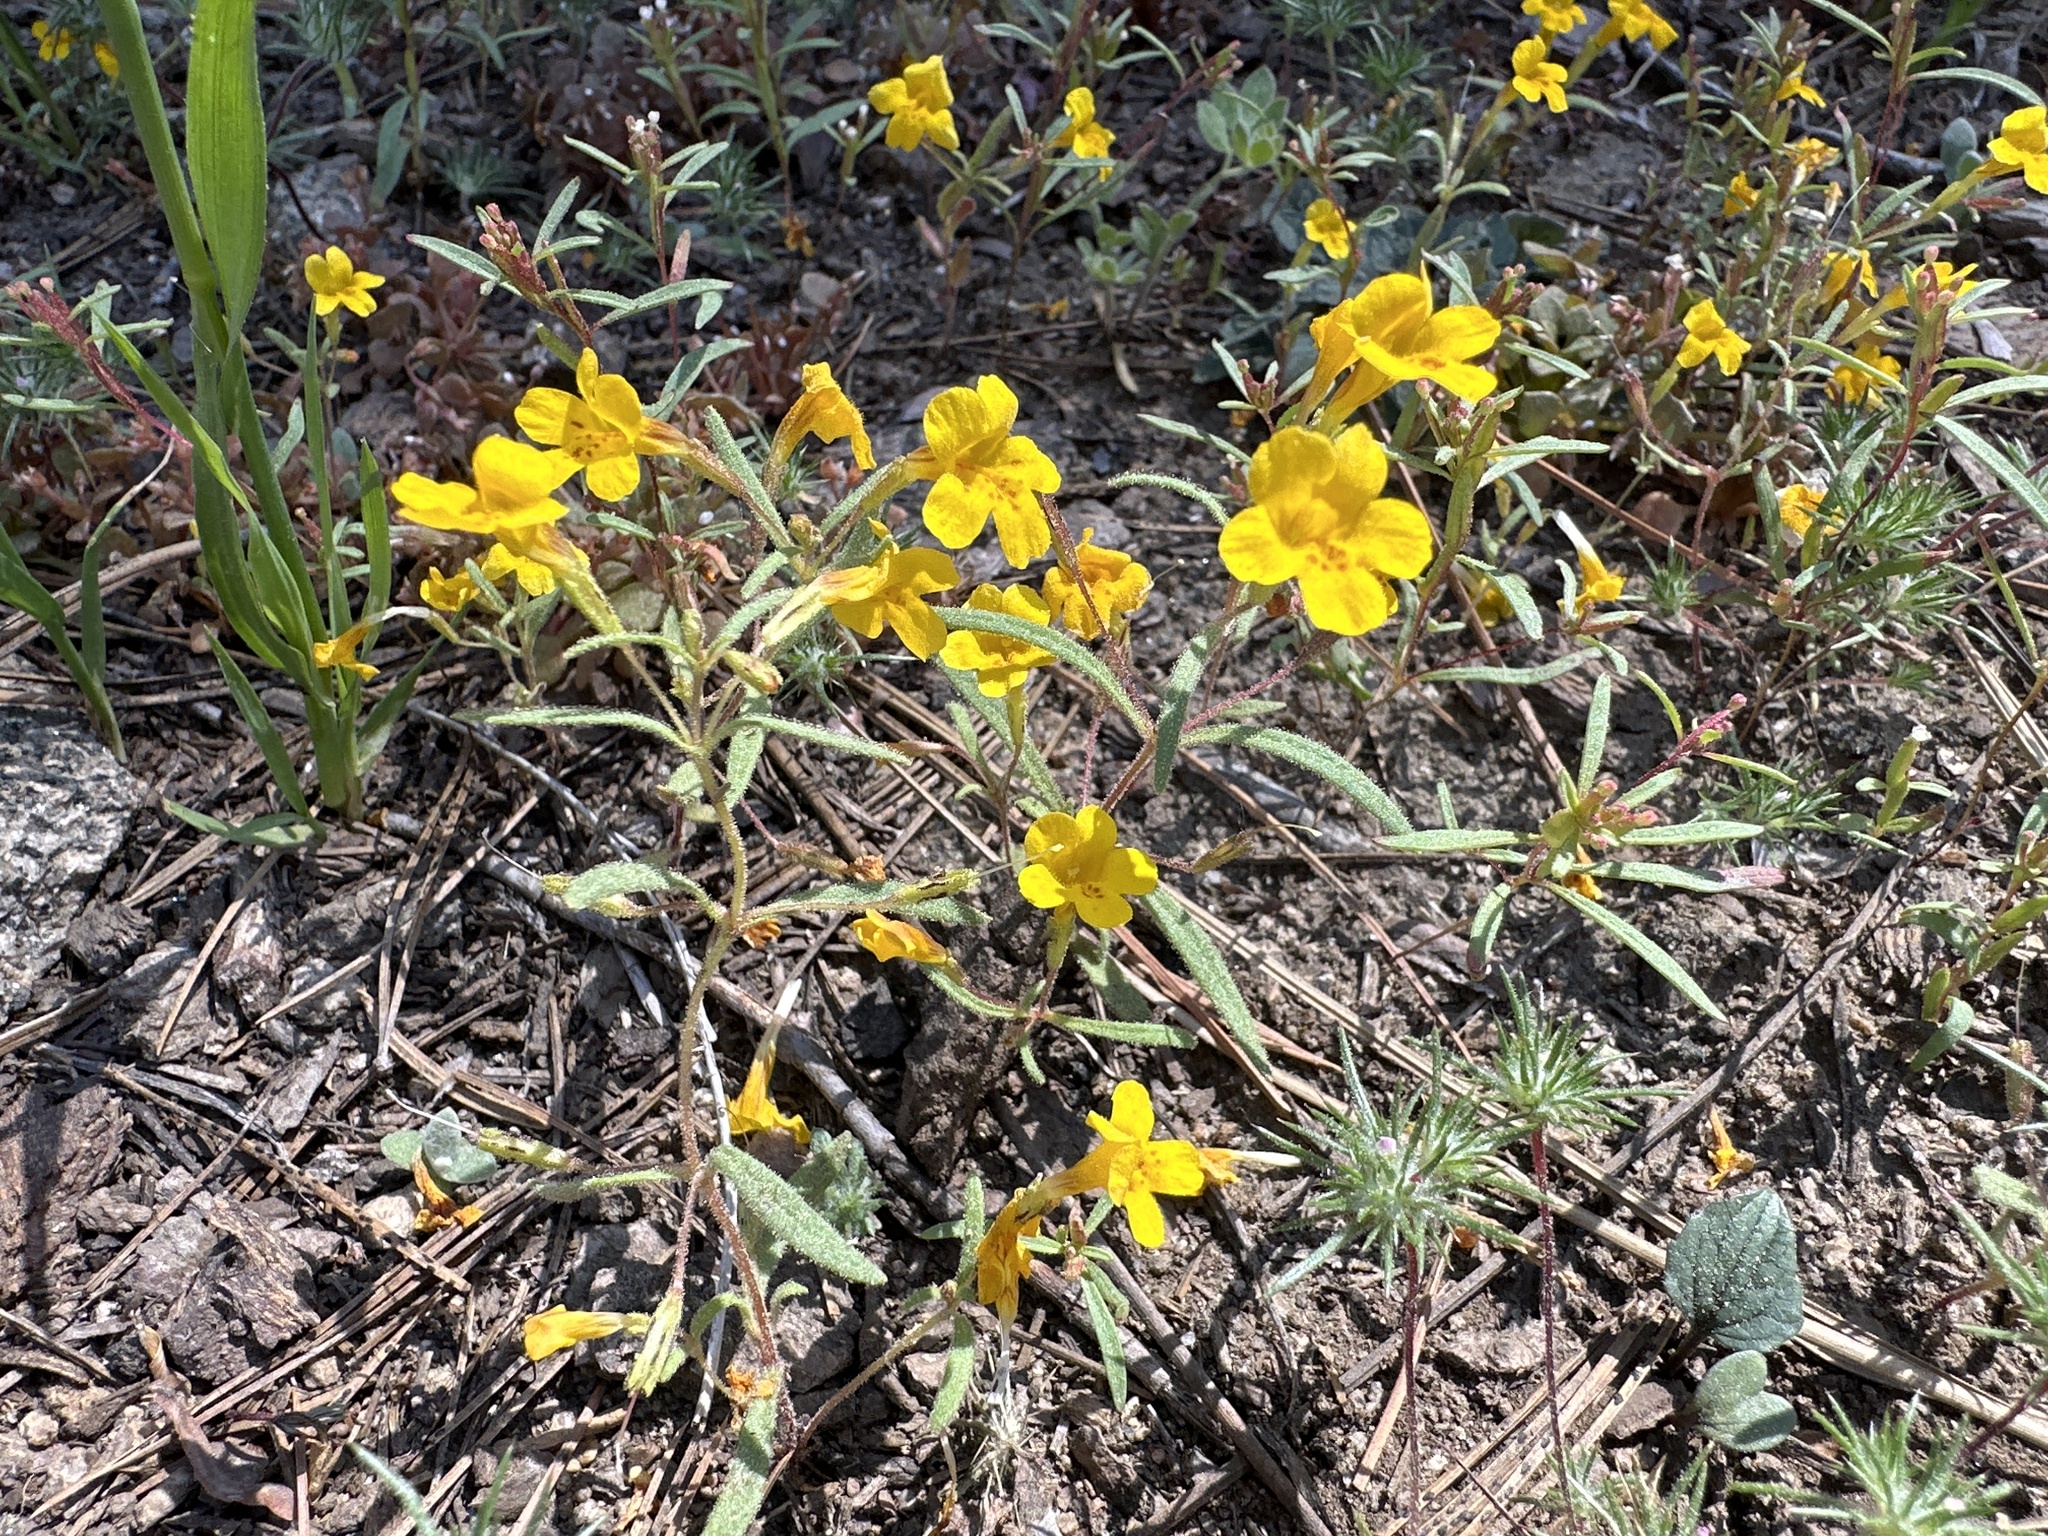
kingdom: Plantae
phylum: Tracheophyta
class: Magnoliopsida
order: Lamiales
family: Phrymaceae
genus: Erythranthe
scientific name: Erythranthe montioides
